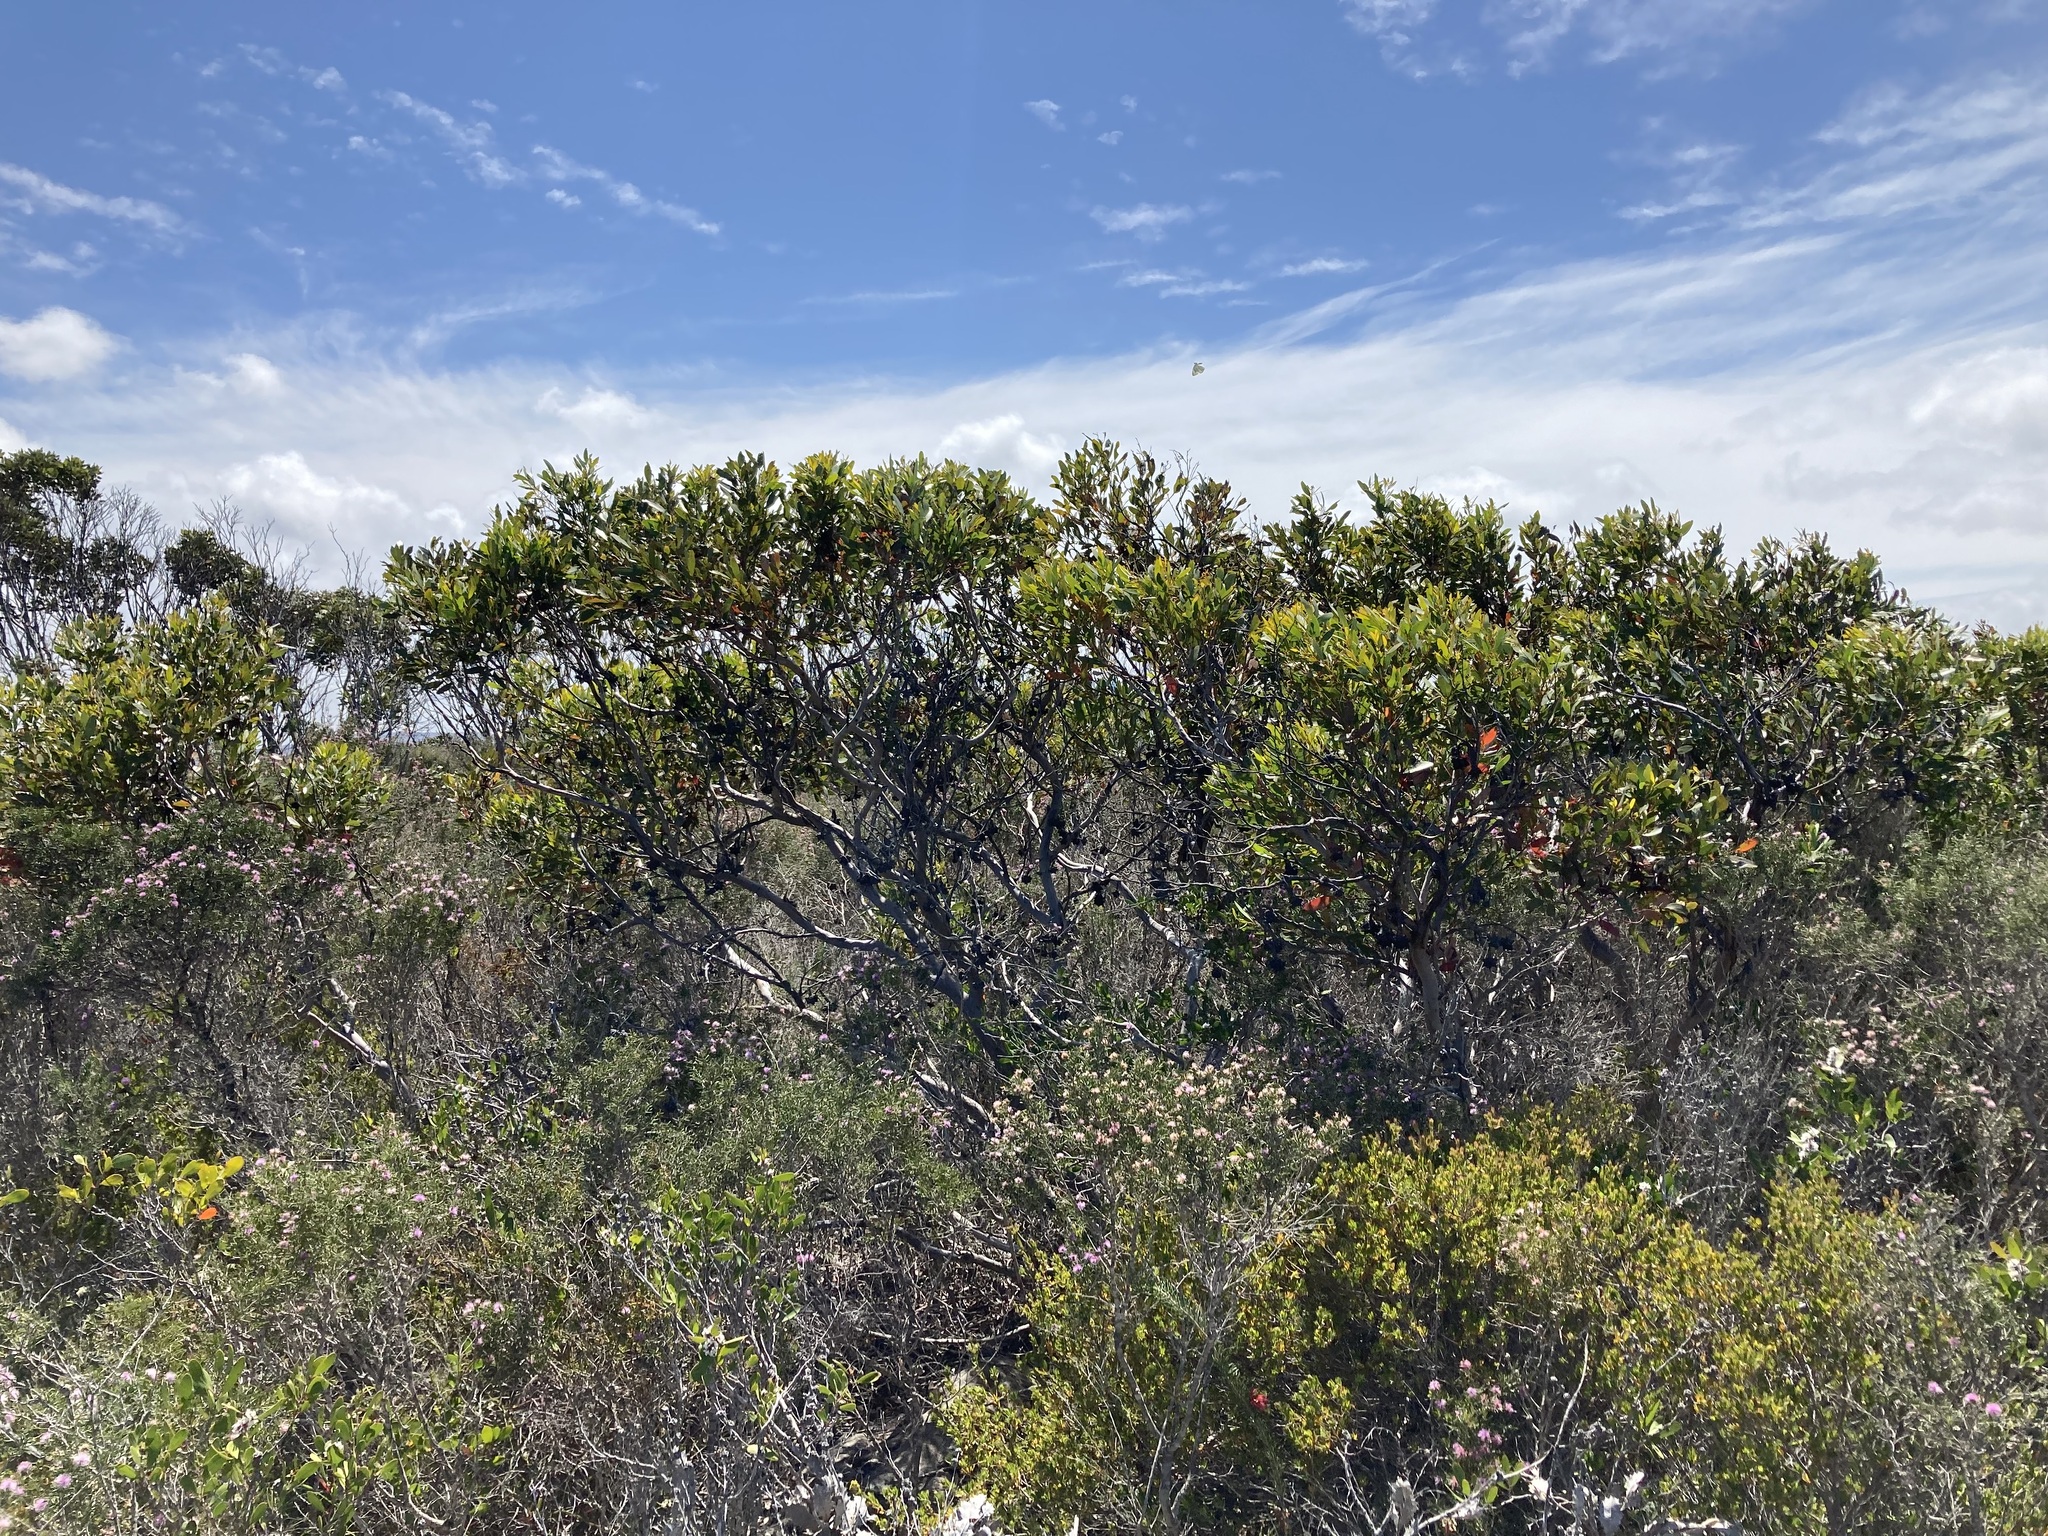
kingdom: Plantae
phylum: Tracheophyta
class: Magnoliopsida
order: Myrtales
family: Myrtaceae
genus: Eucalyptus
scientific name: Eucalyptus lehmannii
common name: Bushy yate
